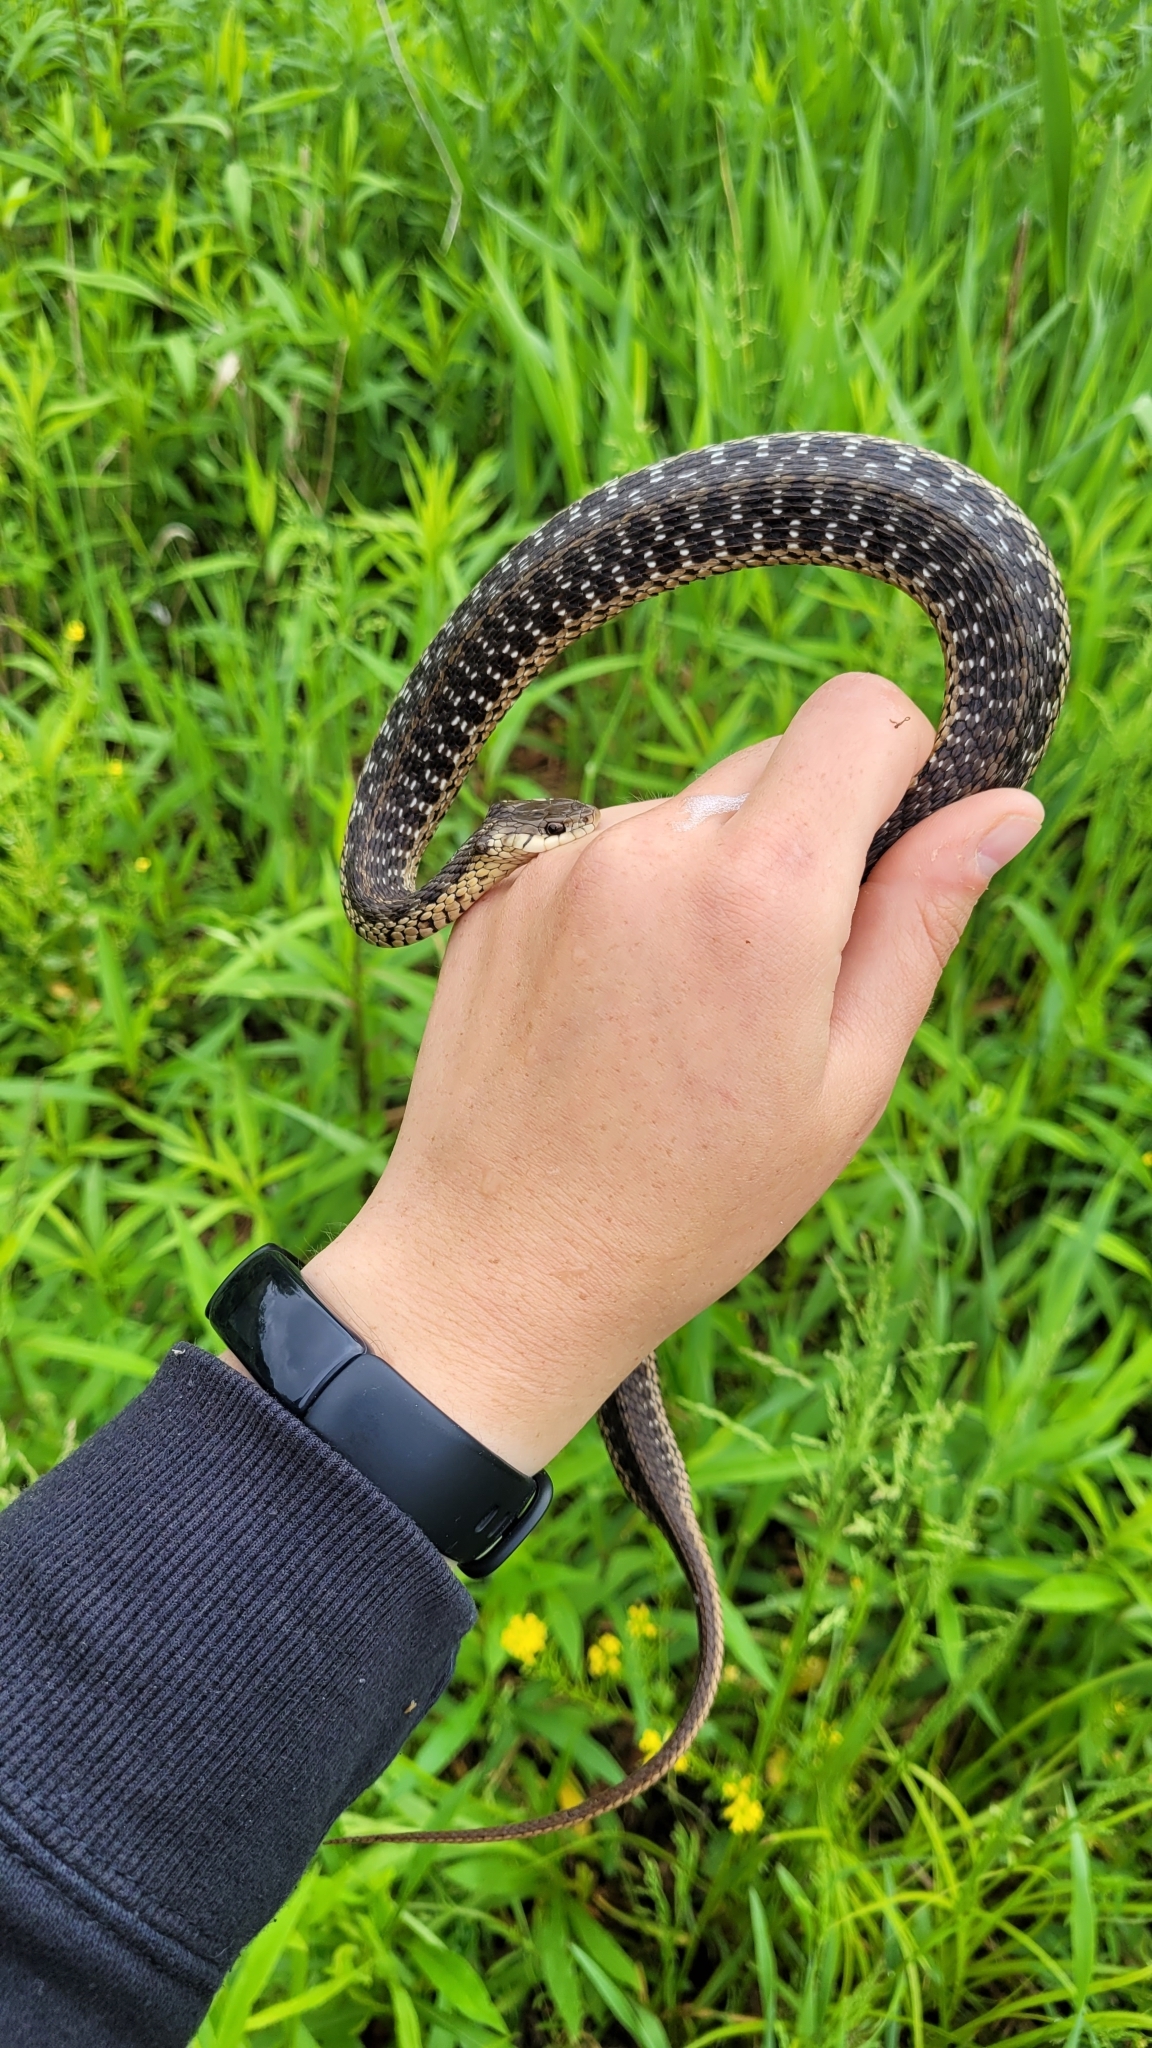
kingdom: Animalia
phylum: Chordata
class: Squamata
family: Colubridae
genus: Thamnophis
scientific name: Thamnophis sirtalis
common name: Common garter snake
